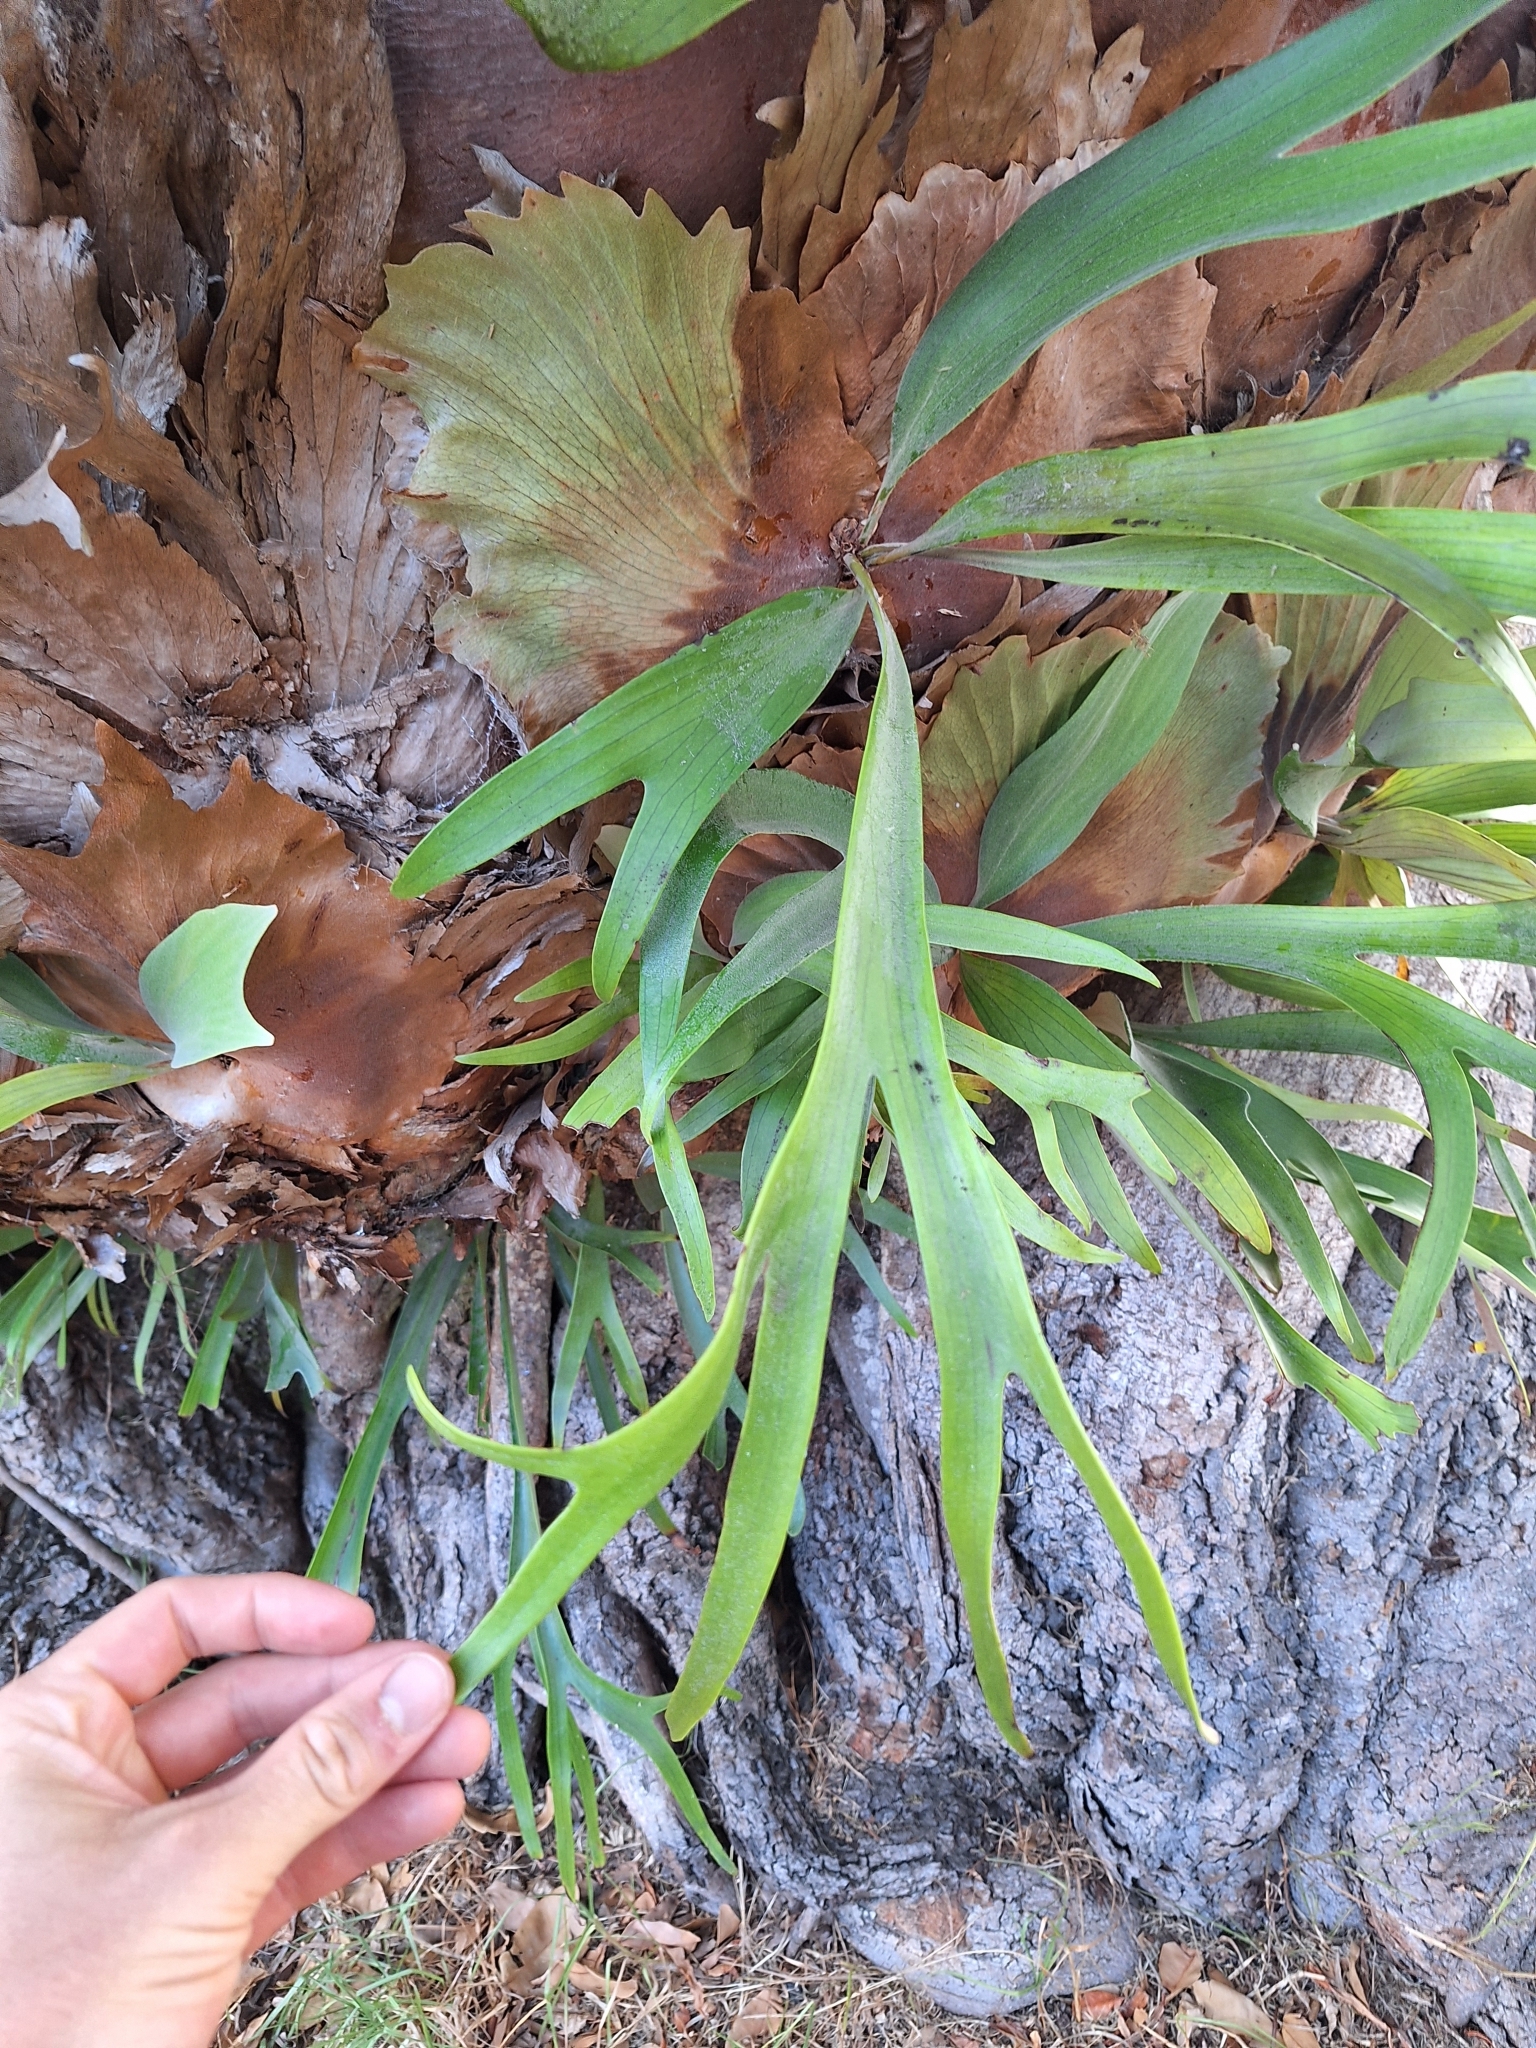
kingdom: Plantae
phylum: Tracheophyta
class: Polypodiopsida
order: Polypodiales
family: Polypodiaceae
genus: Platycerium
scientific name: Platycerium bifurcatum
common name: Elkhorn fern
